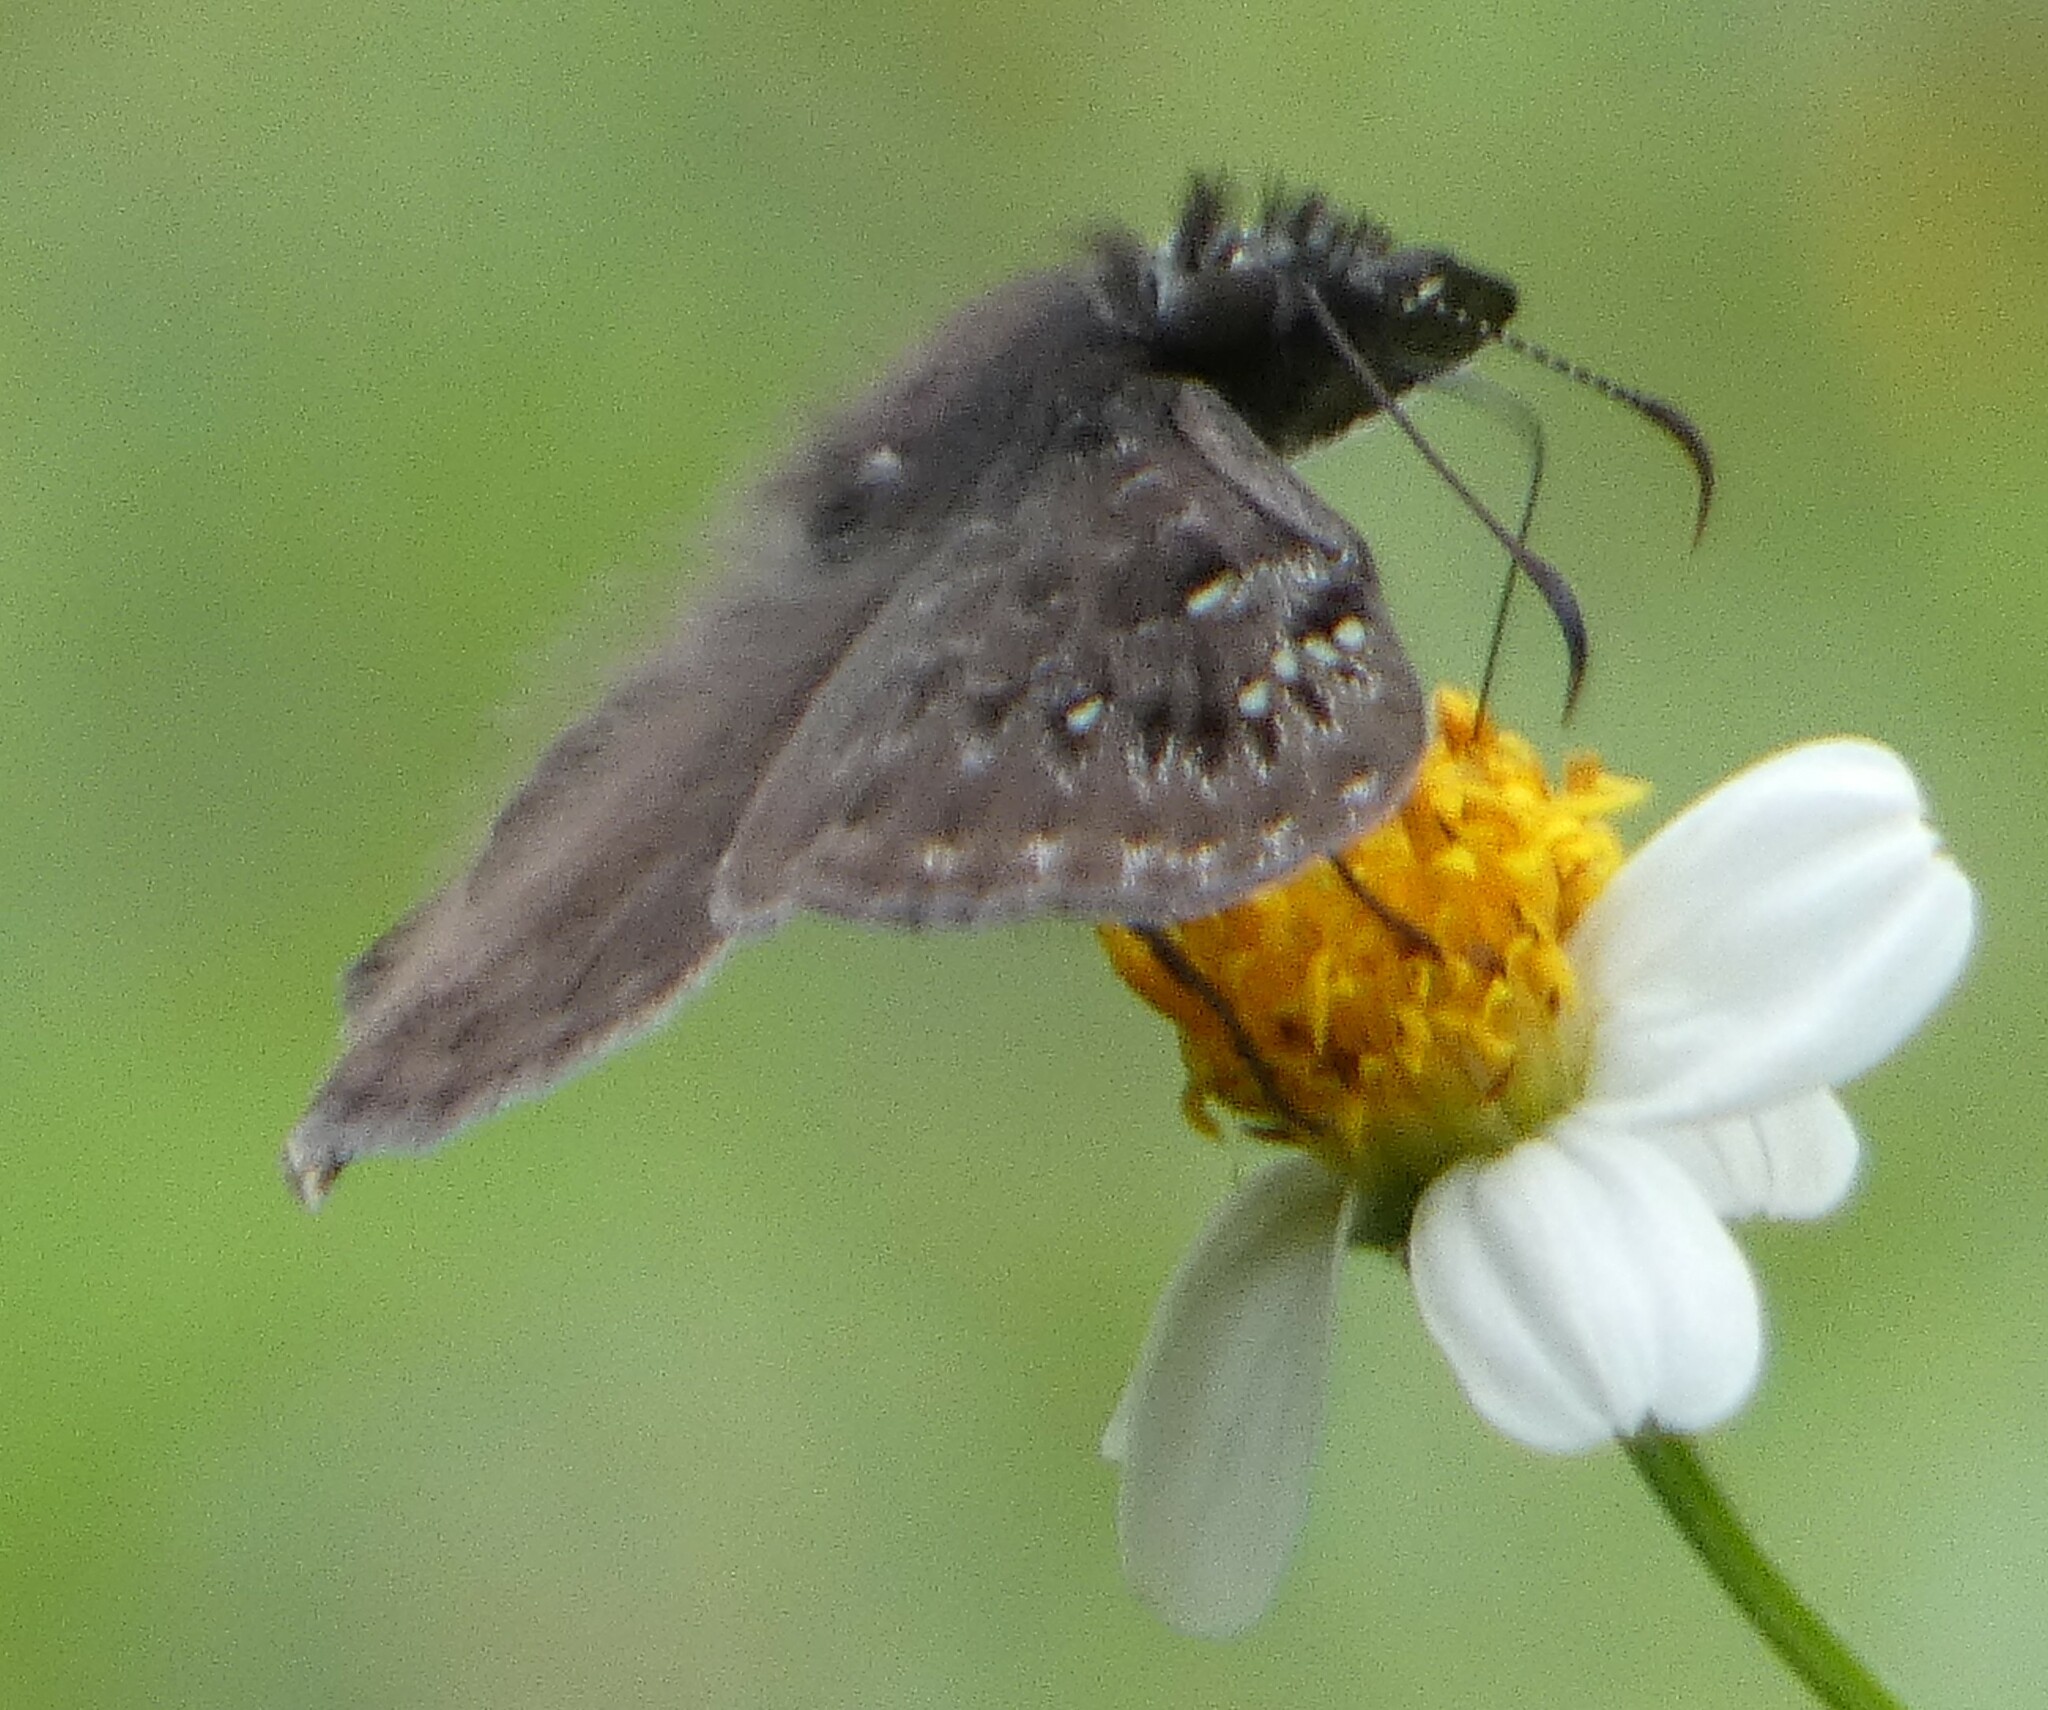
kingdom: Animalia
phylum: Arthropoda
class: Insecta
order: Lepidoptera
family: Hesperiidae
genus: Erynnis
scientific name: Erynnis horatius
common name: Horace's duskywing
